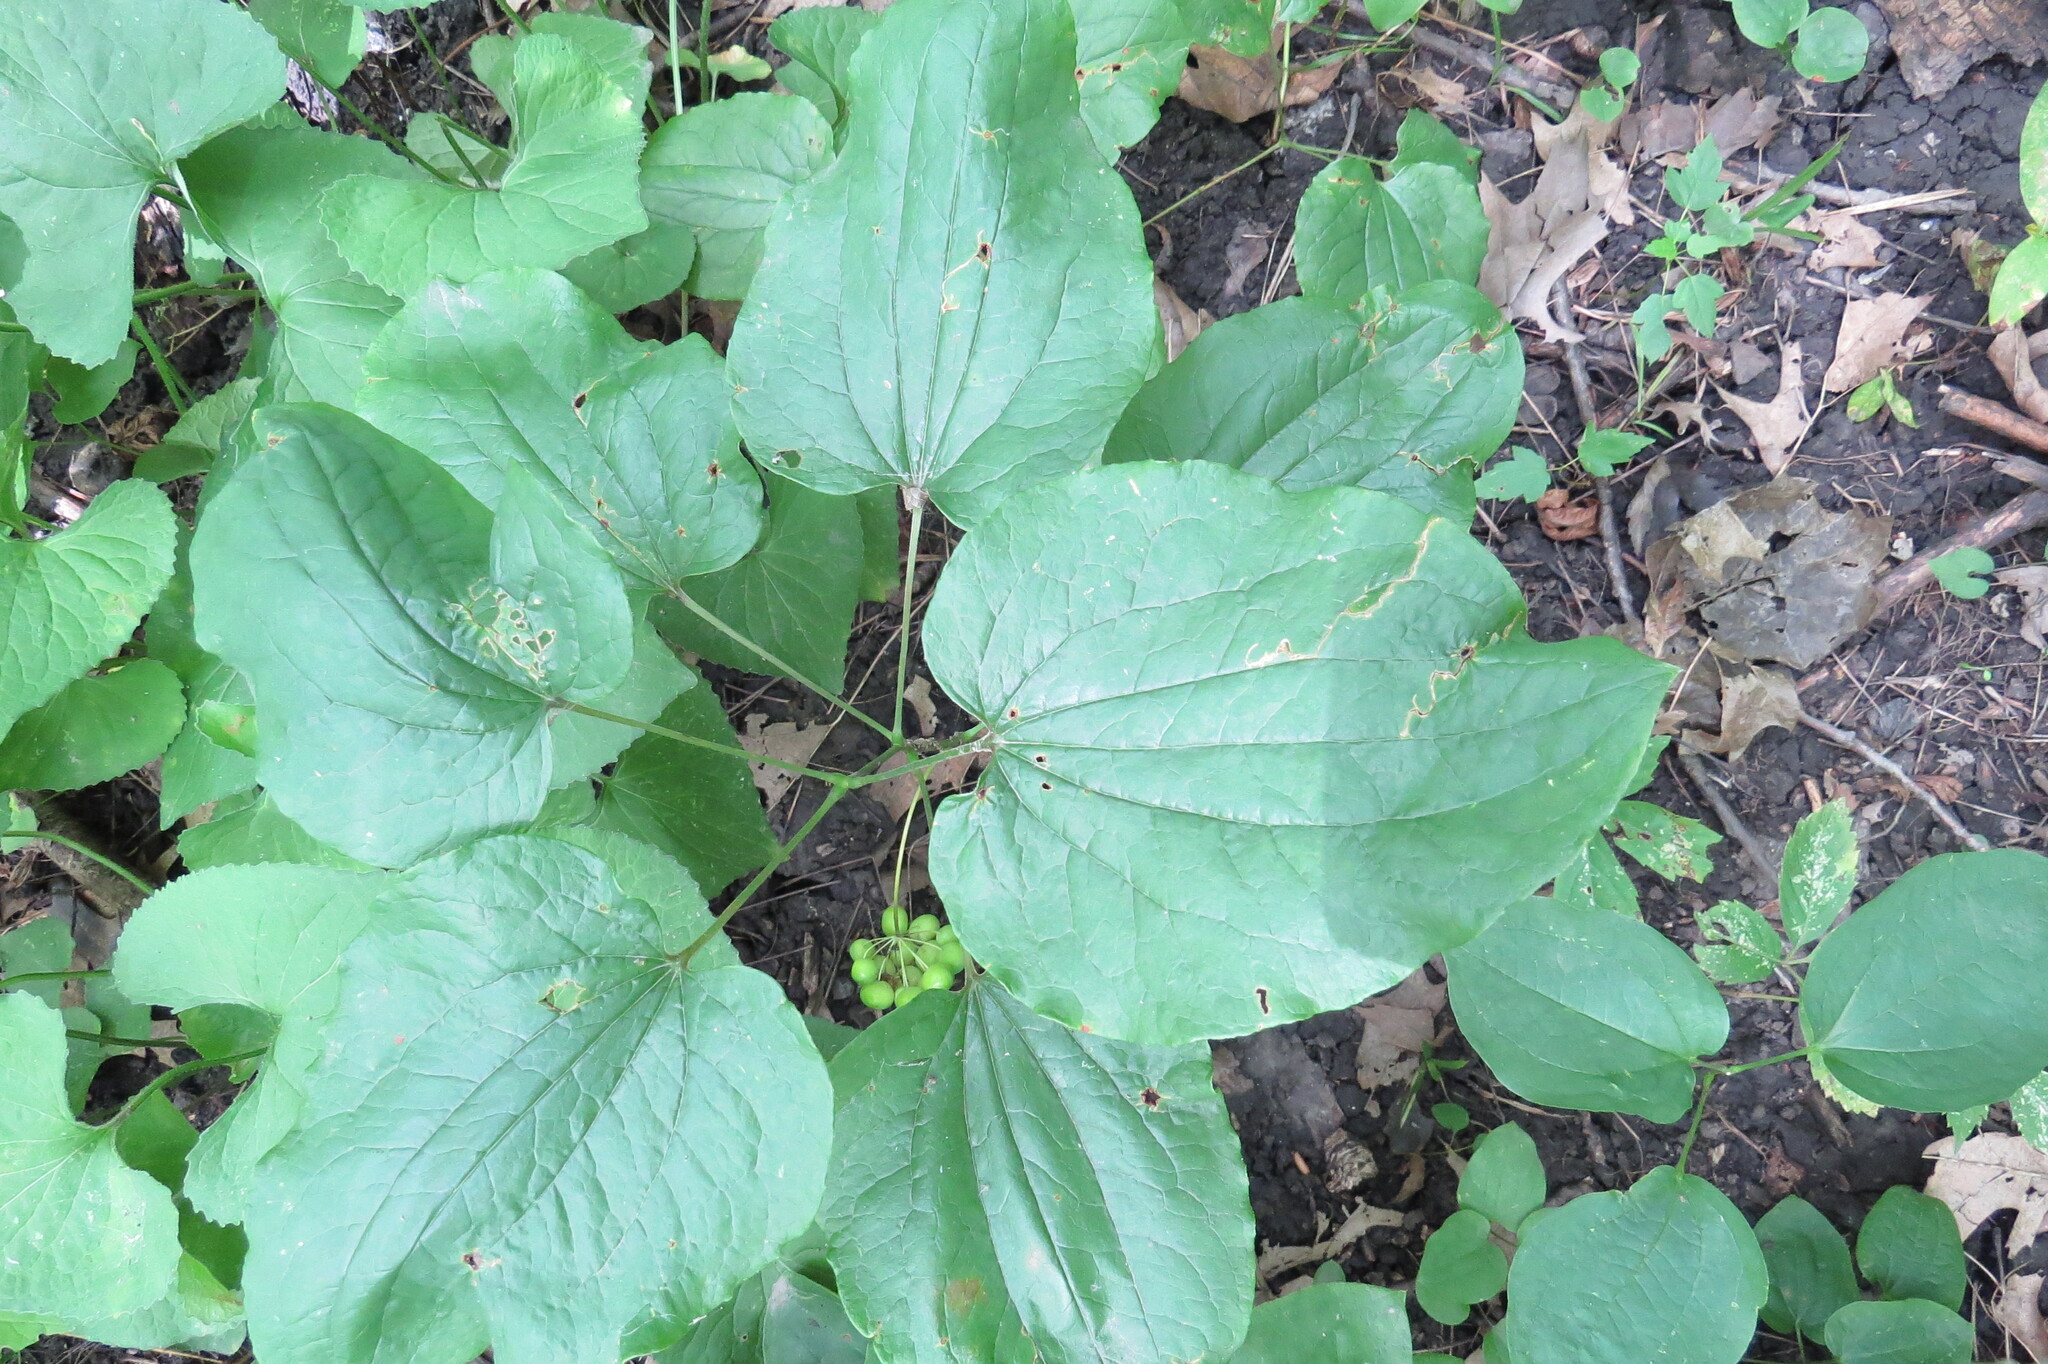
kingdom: Plantae
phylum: Tracheophyta
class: Liliopsida
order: Liliales
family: Smilacaceae
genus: Smilax
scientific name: Smilax ecirrhata
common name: Upright carrionflower
